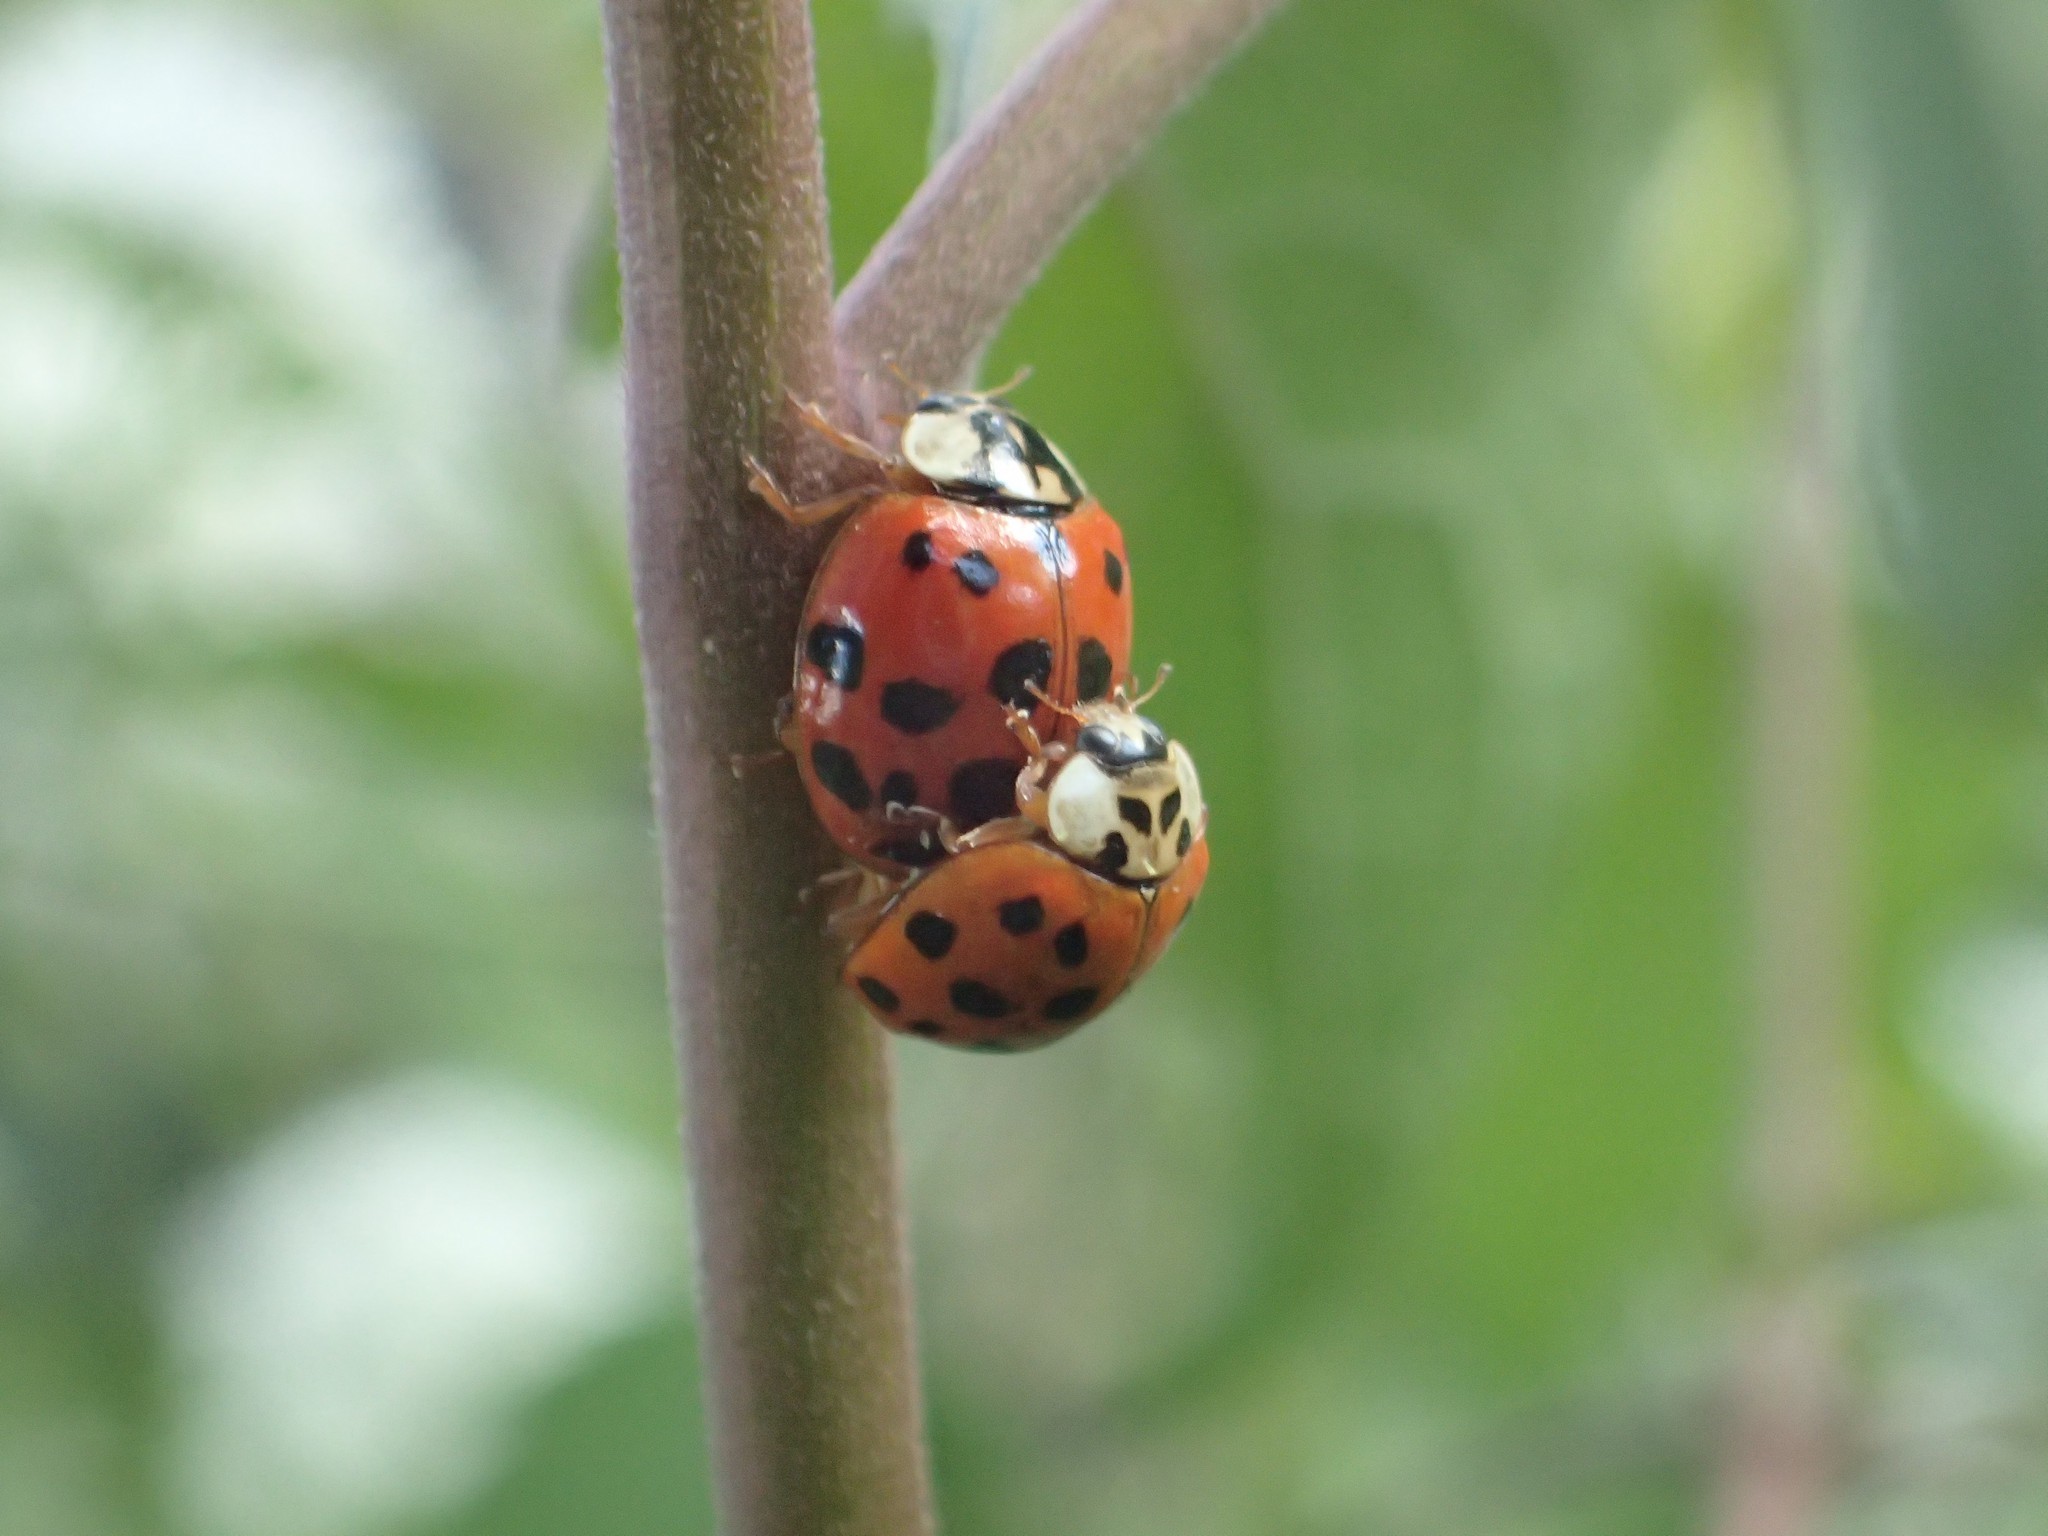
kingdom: Animalia
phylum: Arthropoda
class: Insecta
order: Coleoptera
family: Coccinellidae
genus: Harmonia
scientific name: Harmonia axyridis
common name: Harlequin ladybird
